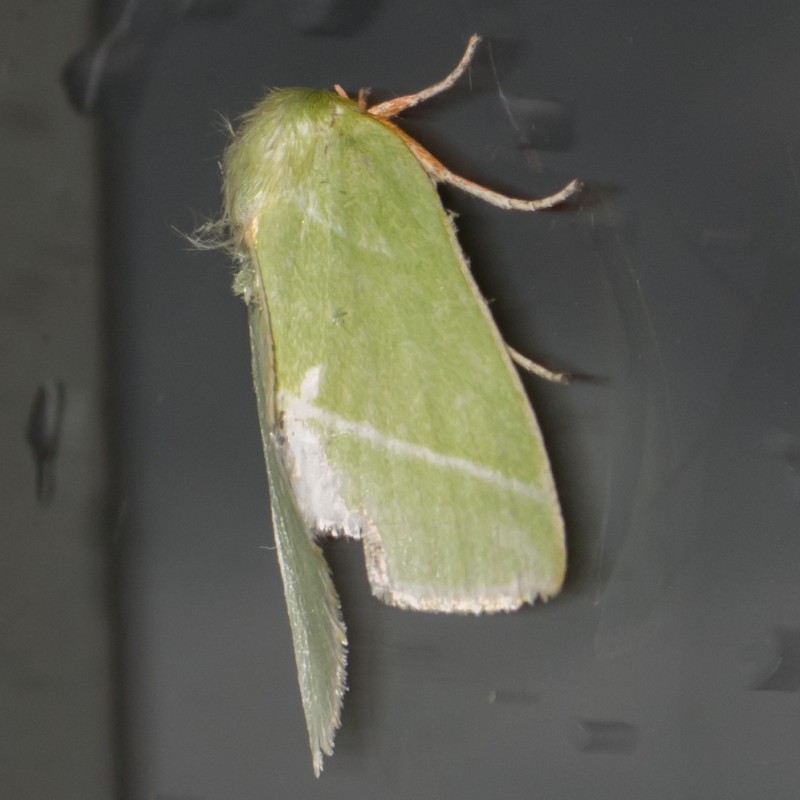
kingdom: Animalia
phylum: Arthropoda
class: Insecta
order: Lepidoptera
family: Nolidae
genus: Bena
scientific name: Bena bicolorana
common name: Scarce silver-lines
